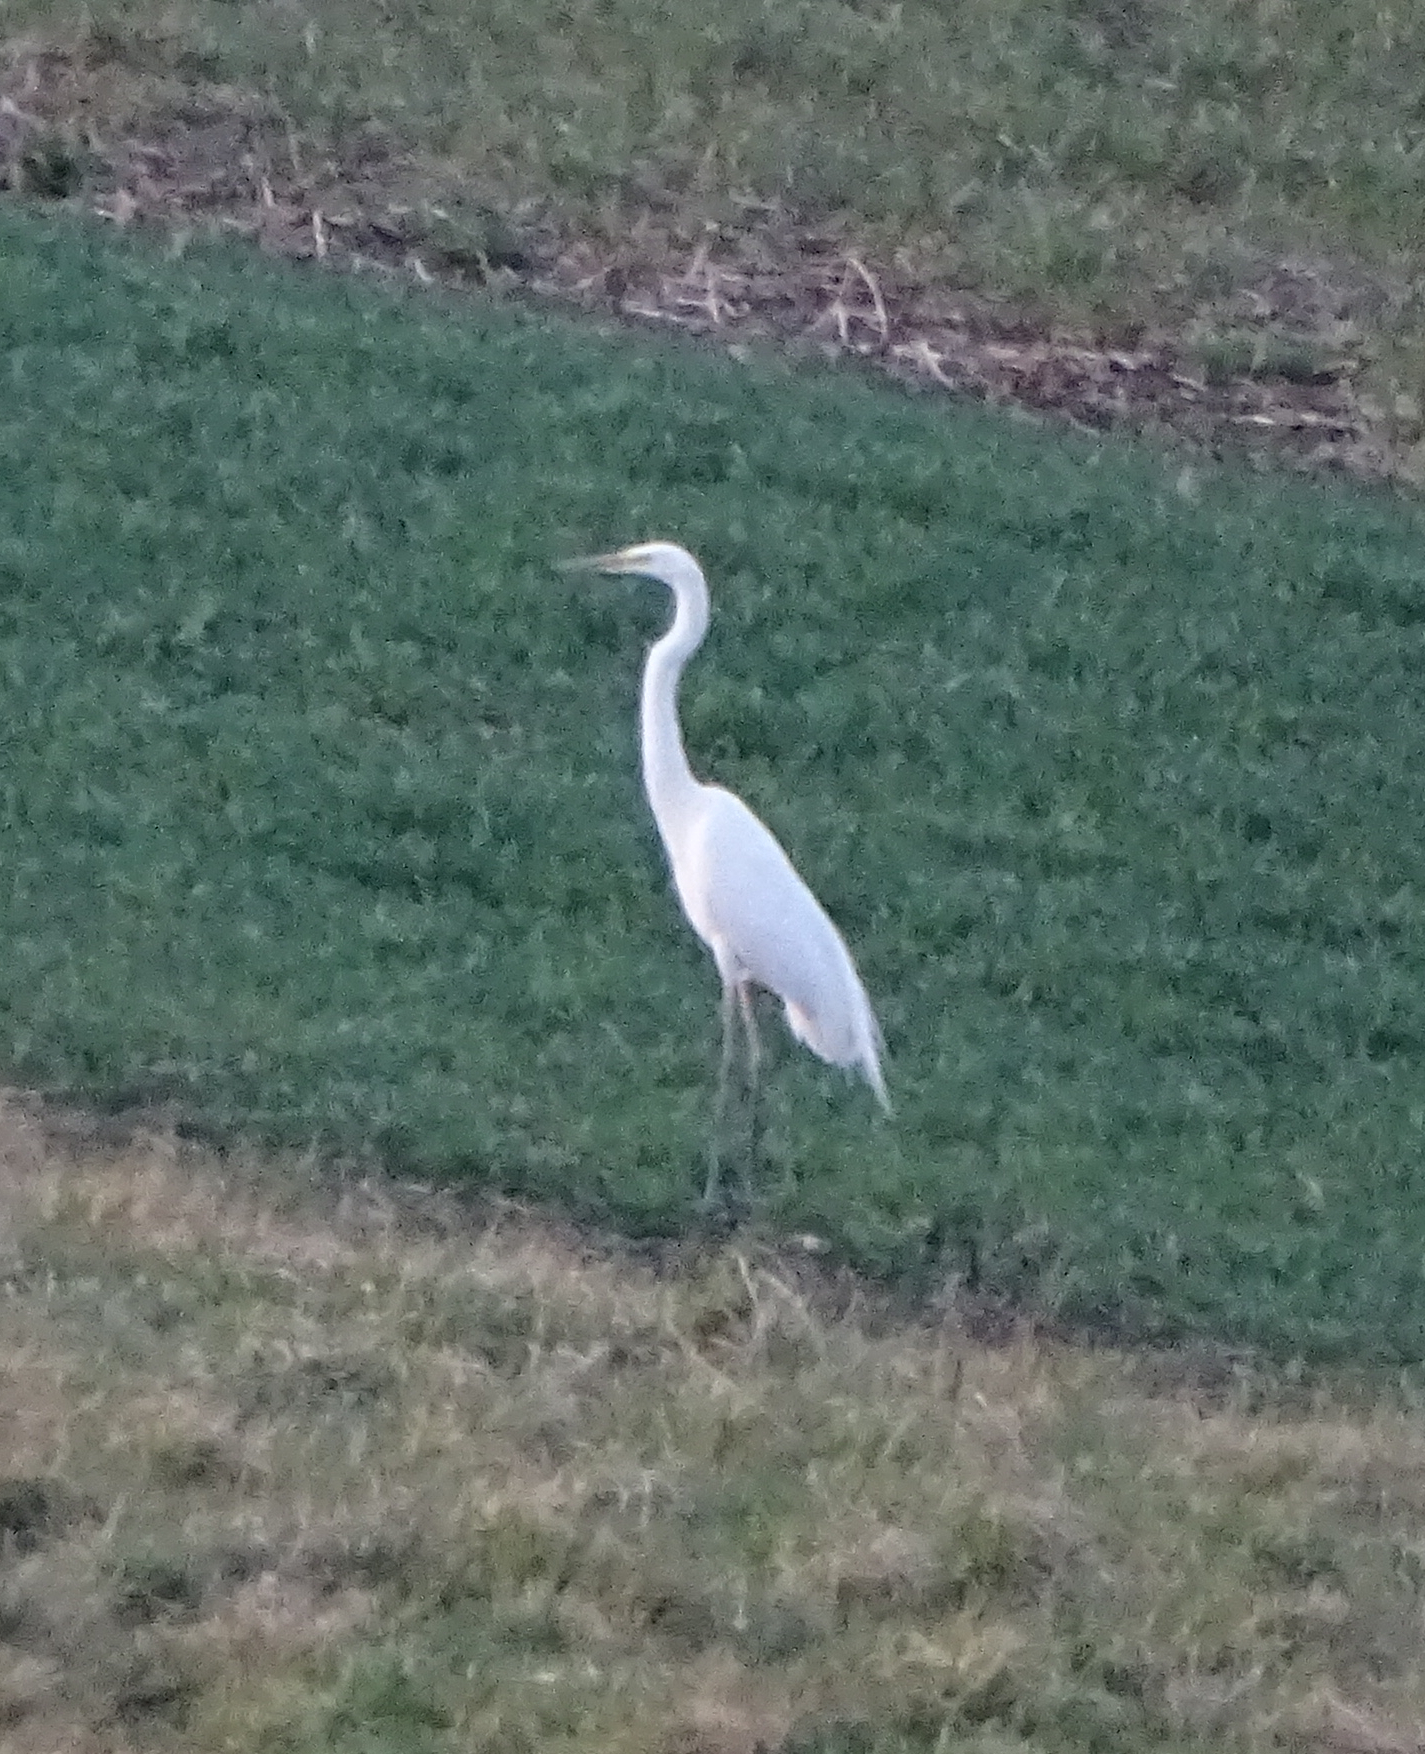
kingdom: Animalia
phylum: Chordata
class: Aves
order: Pelecaniformes
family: Ardeidae
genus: Ardea
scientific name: Ardea alba
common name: Great egret
